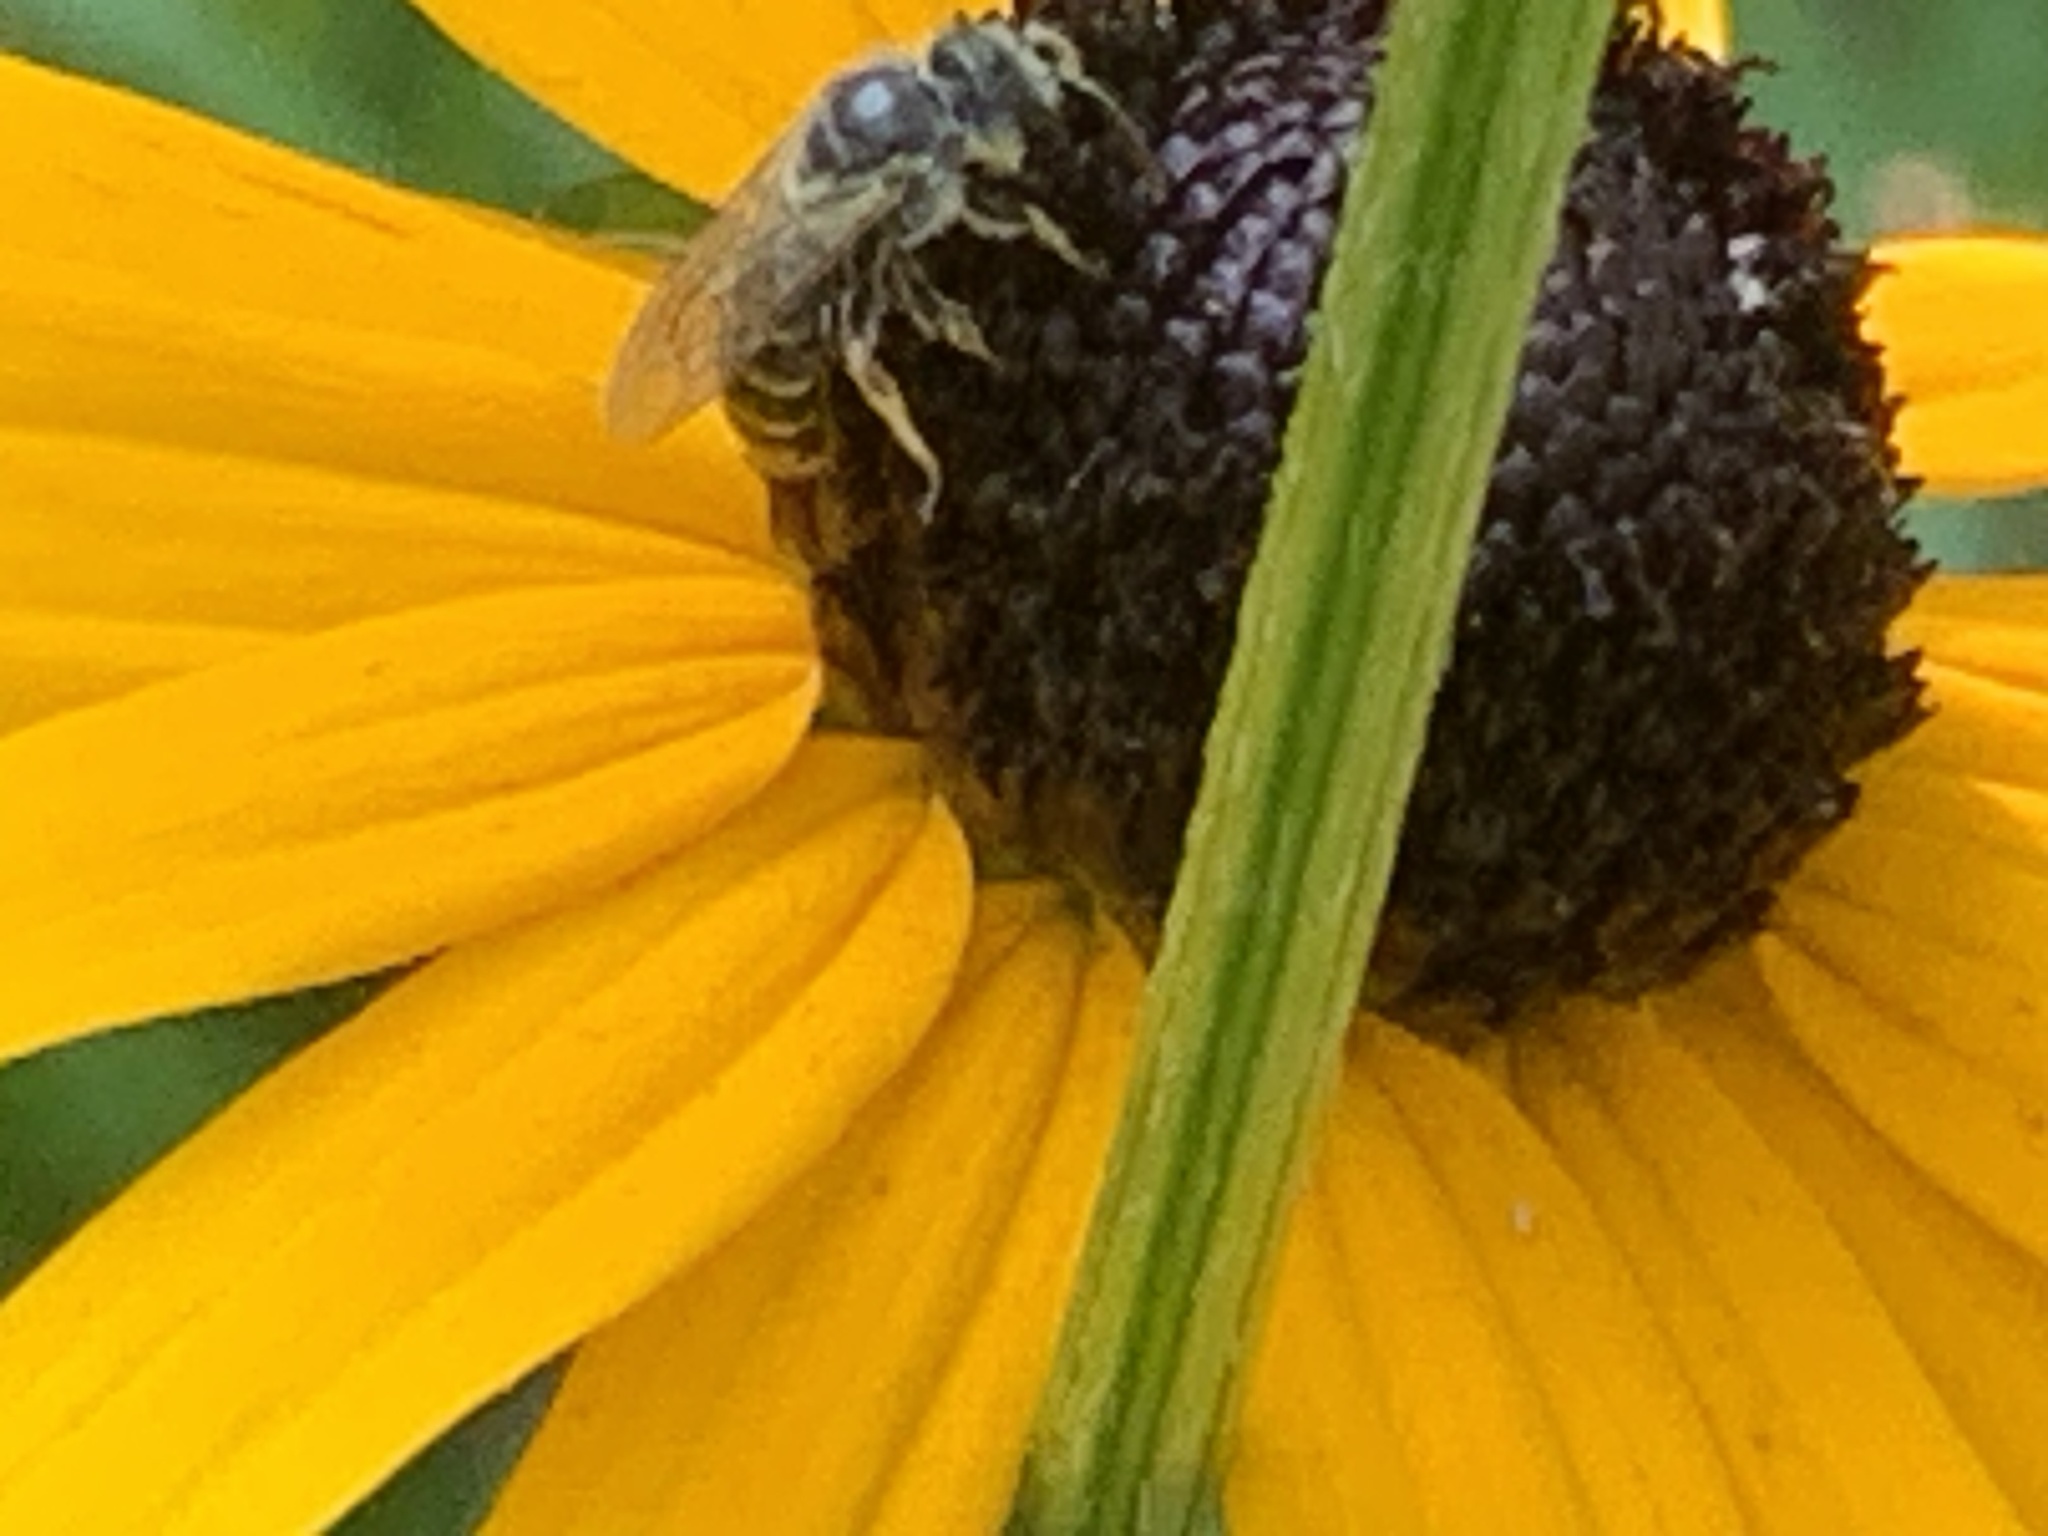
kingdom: Animalia
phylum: Arthropoda
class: Insecta
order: Hymenoptera
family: Halictidae
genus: Halictus
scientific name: Halictus ligatus
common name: Ligated furrow bee
